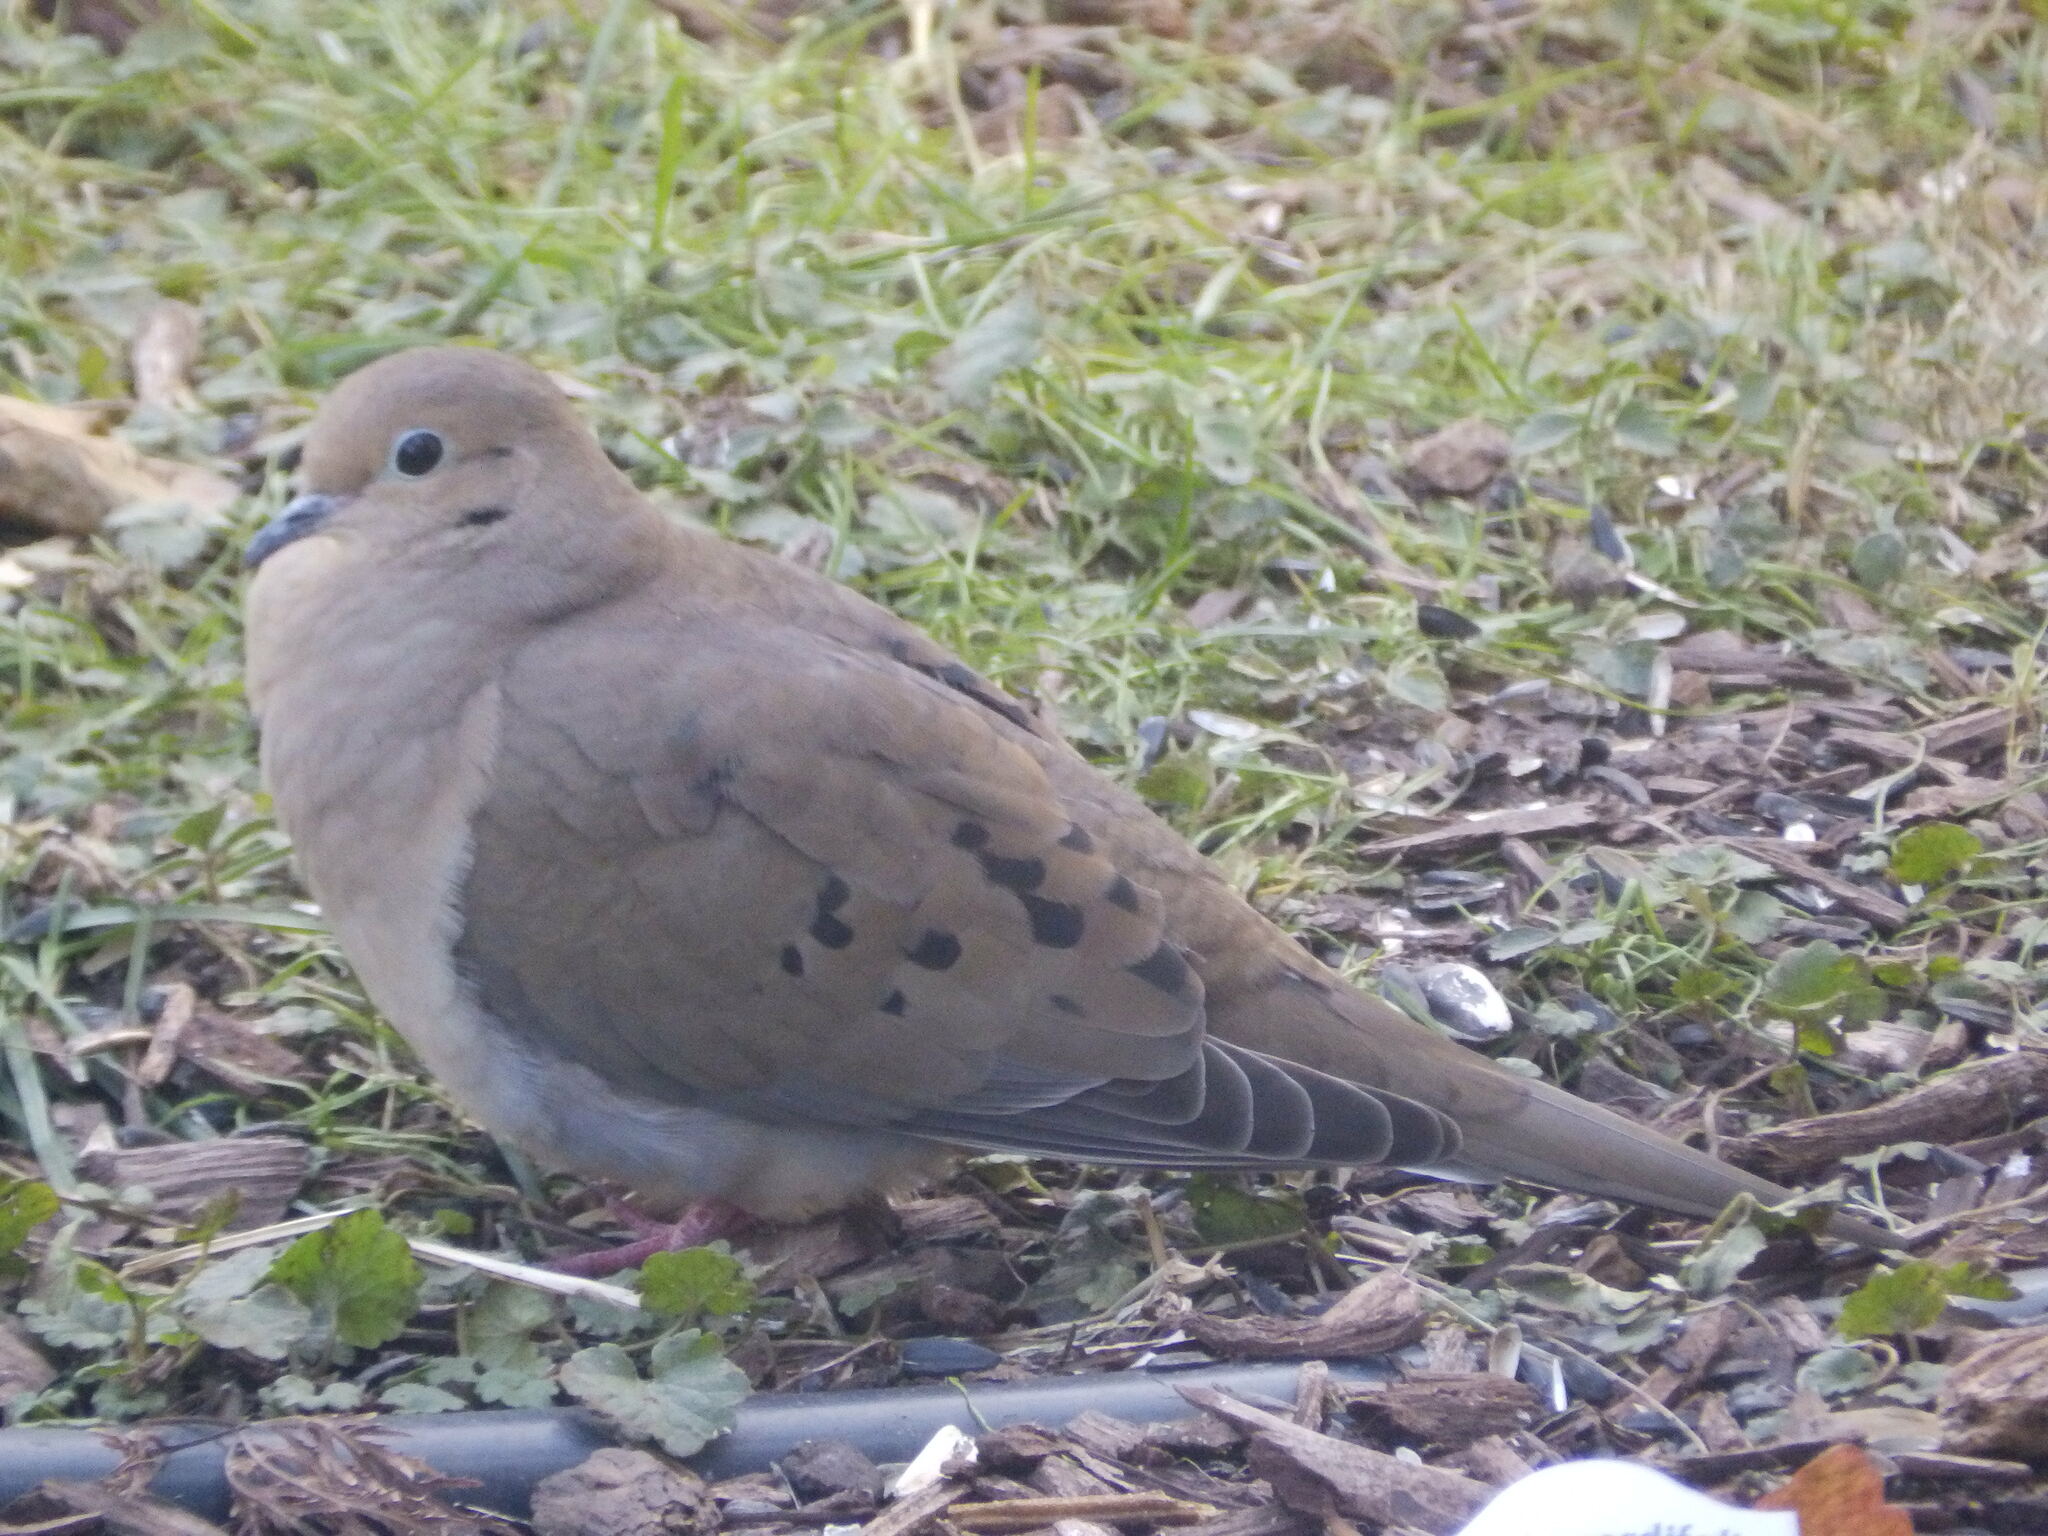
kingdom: Animalia
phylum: Chordata
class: Aves
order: Columbiformes
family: Columbidae
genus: Zenaida
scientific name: Zenaida macroura
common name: Mourning dove
